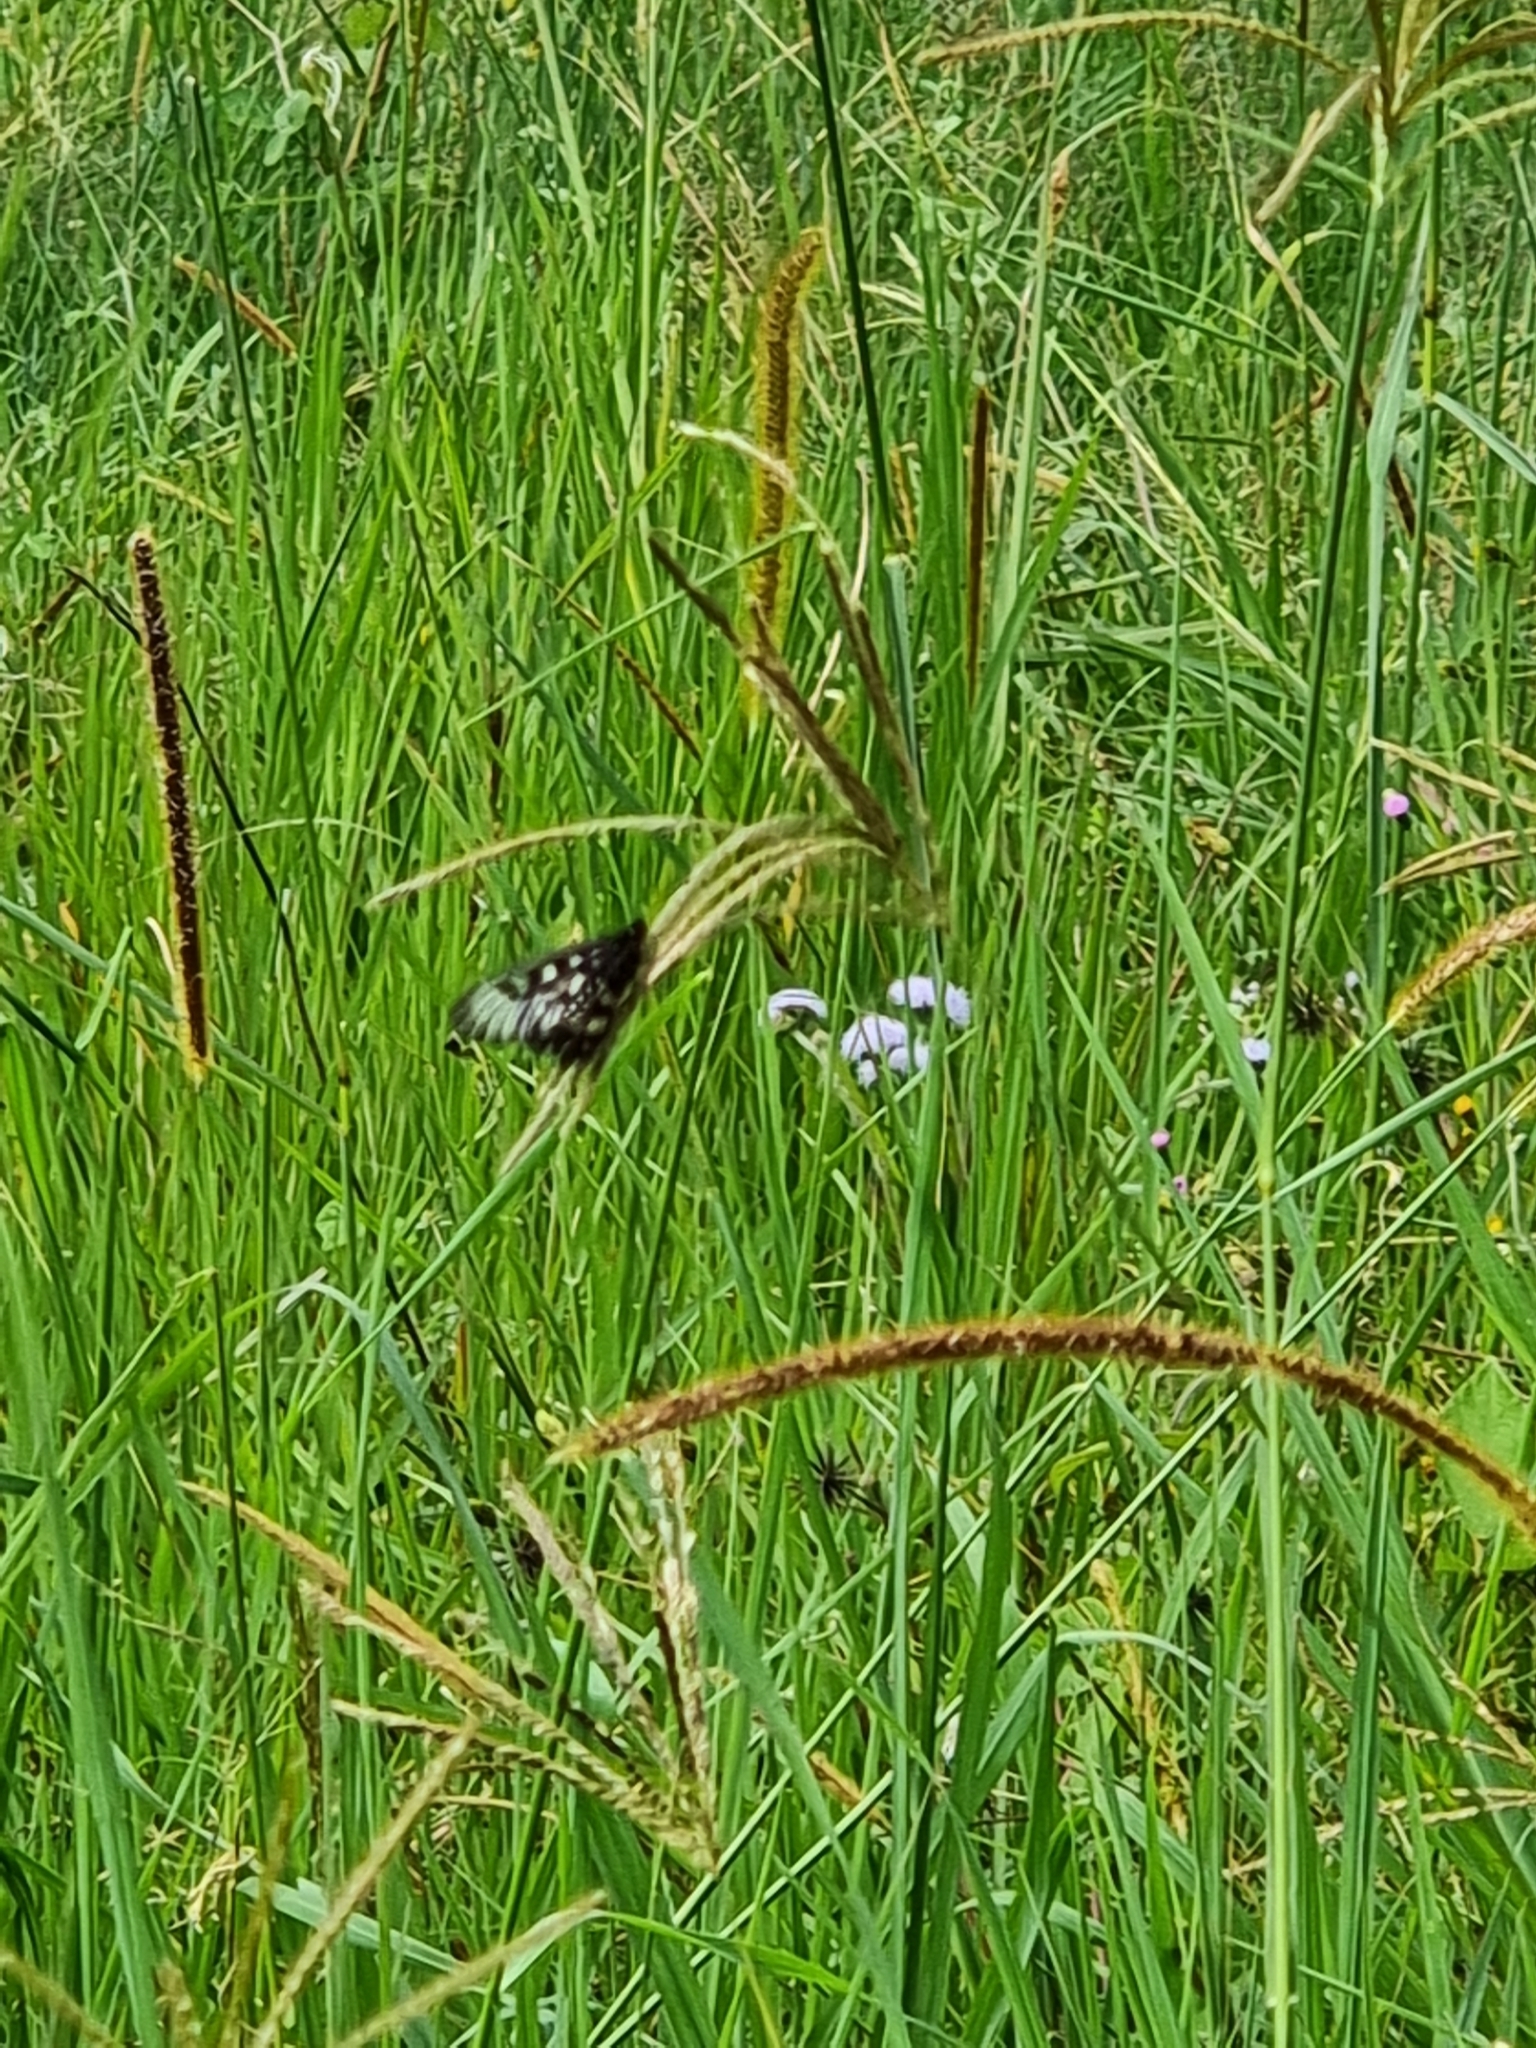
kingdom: Animalia
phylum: Arthropoda
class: Insecta
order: Lepidoptera
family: Nymphalidae
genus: Acraea
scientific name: Acraea andromacha
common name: Glasswing
